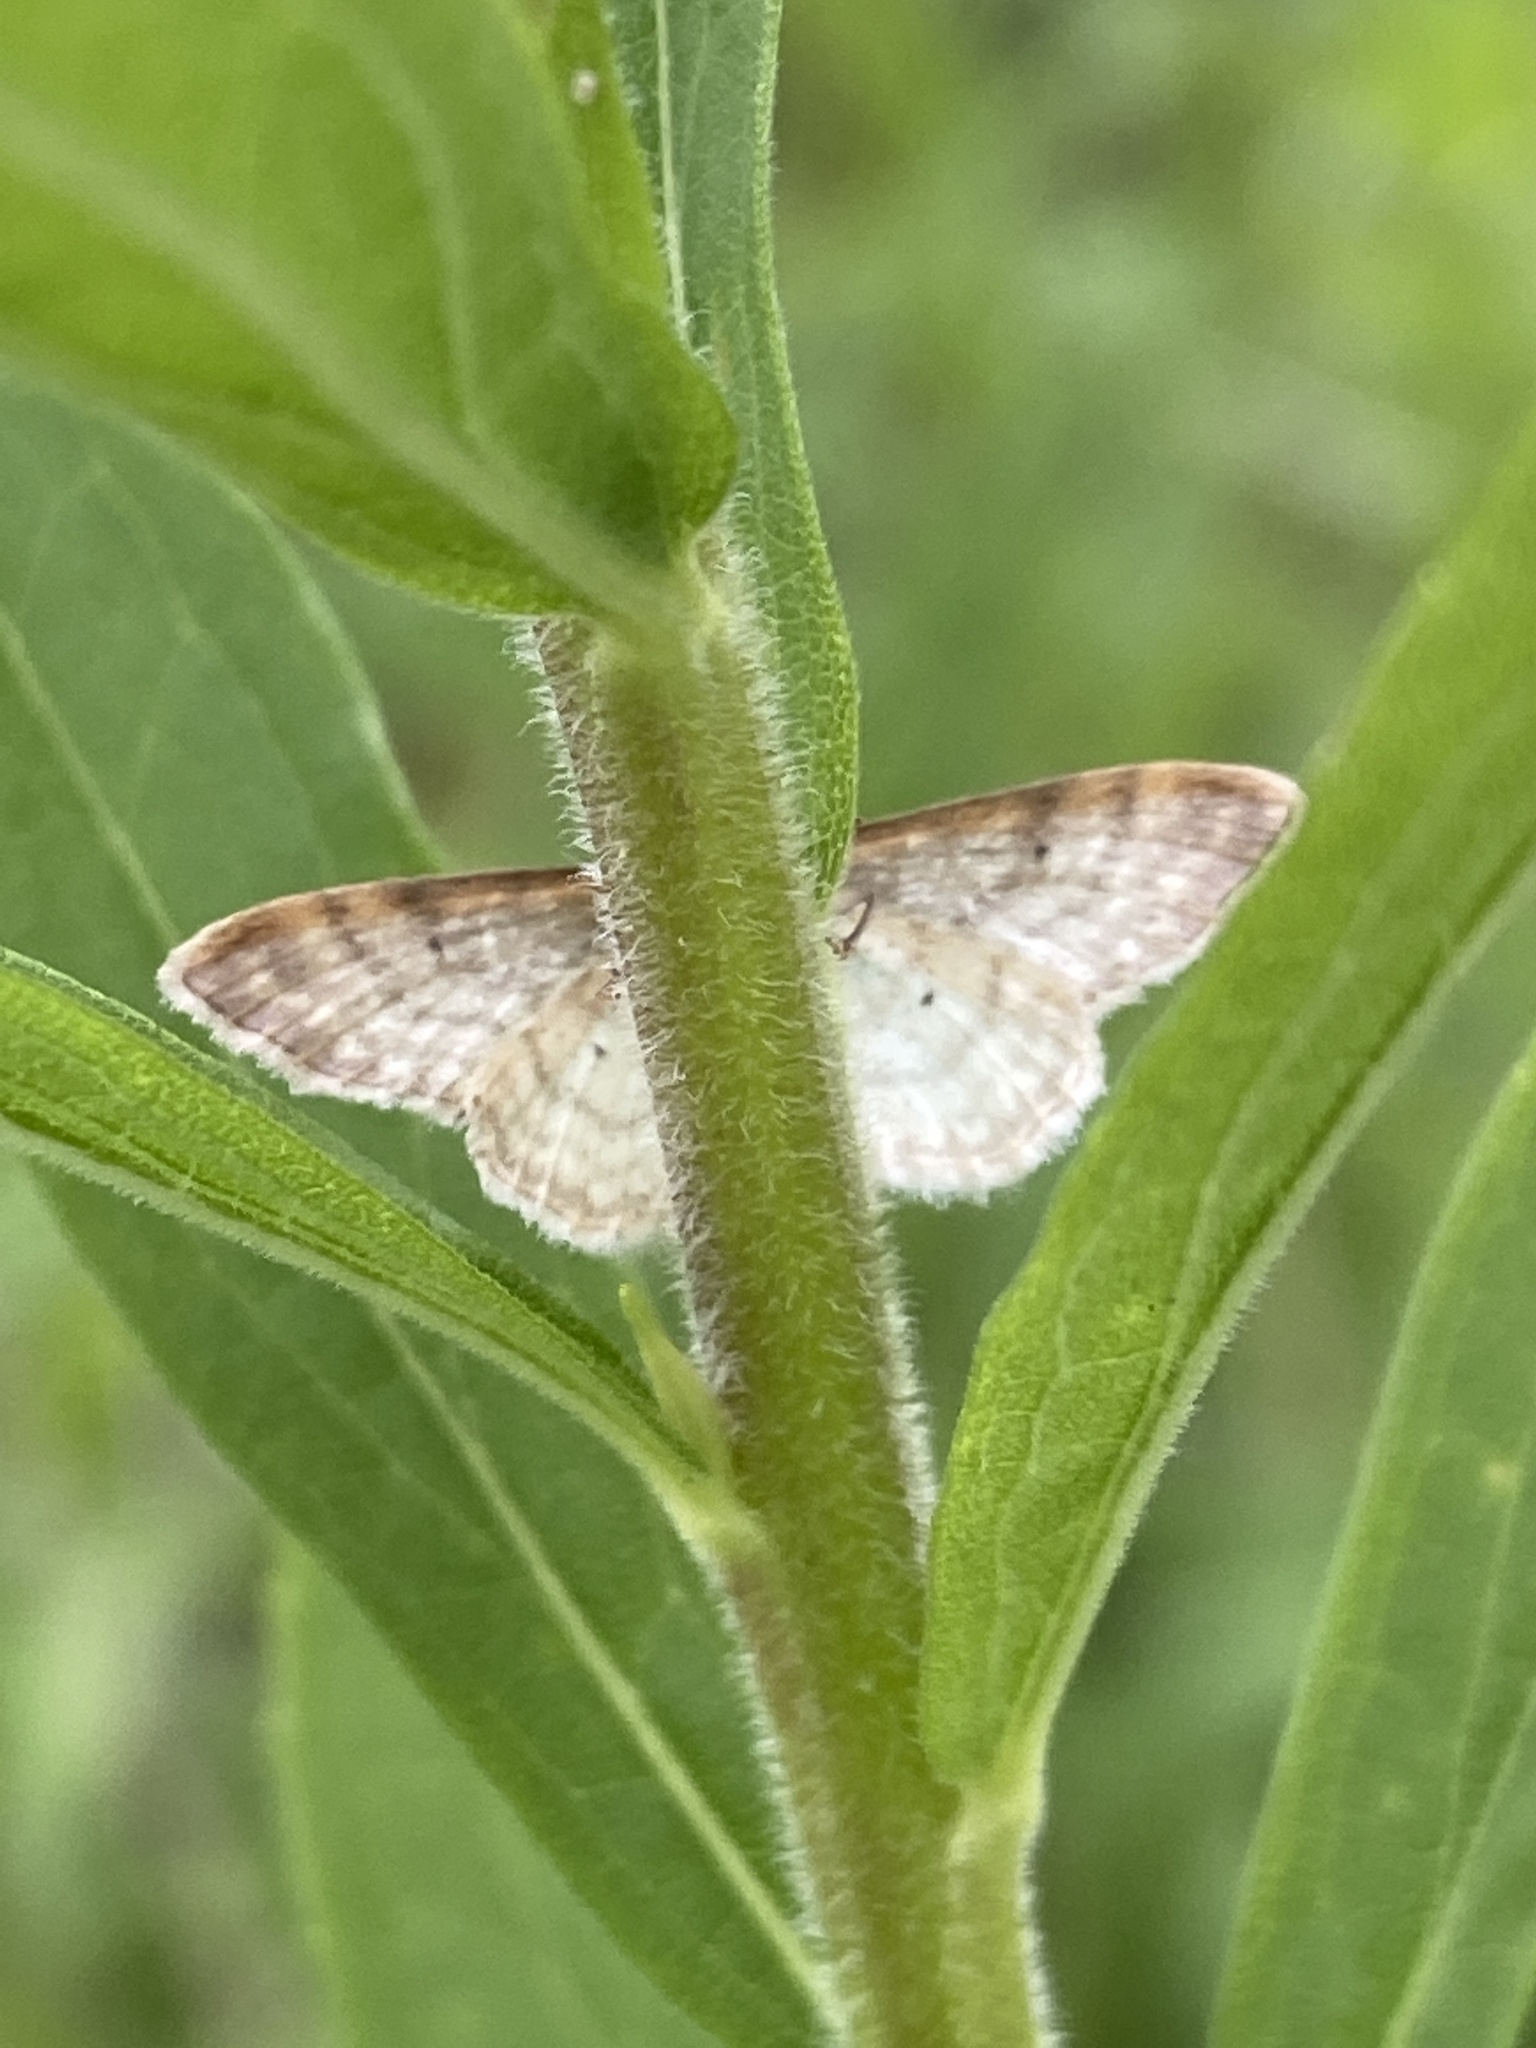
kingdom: Animalia
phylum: Arthropoda
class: Insecta
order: Lepidoptera
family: Geometridae
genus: Idaea
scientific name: Idaea humiliata
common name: Isle of wight wave
